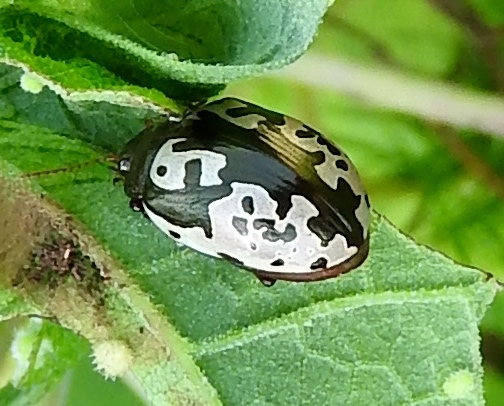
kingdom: Animalia
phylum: Arthropoda
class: Insecta
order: Coleoptera
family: Chrysomelidae
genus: Calligrapha
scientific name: Calligrapha intermedia
